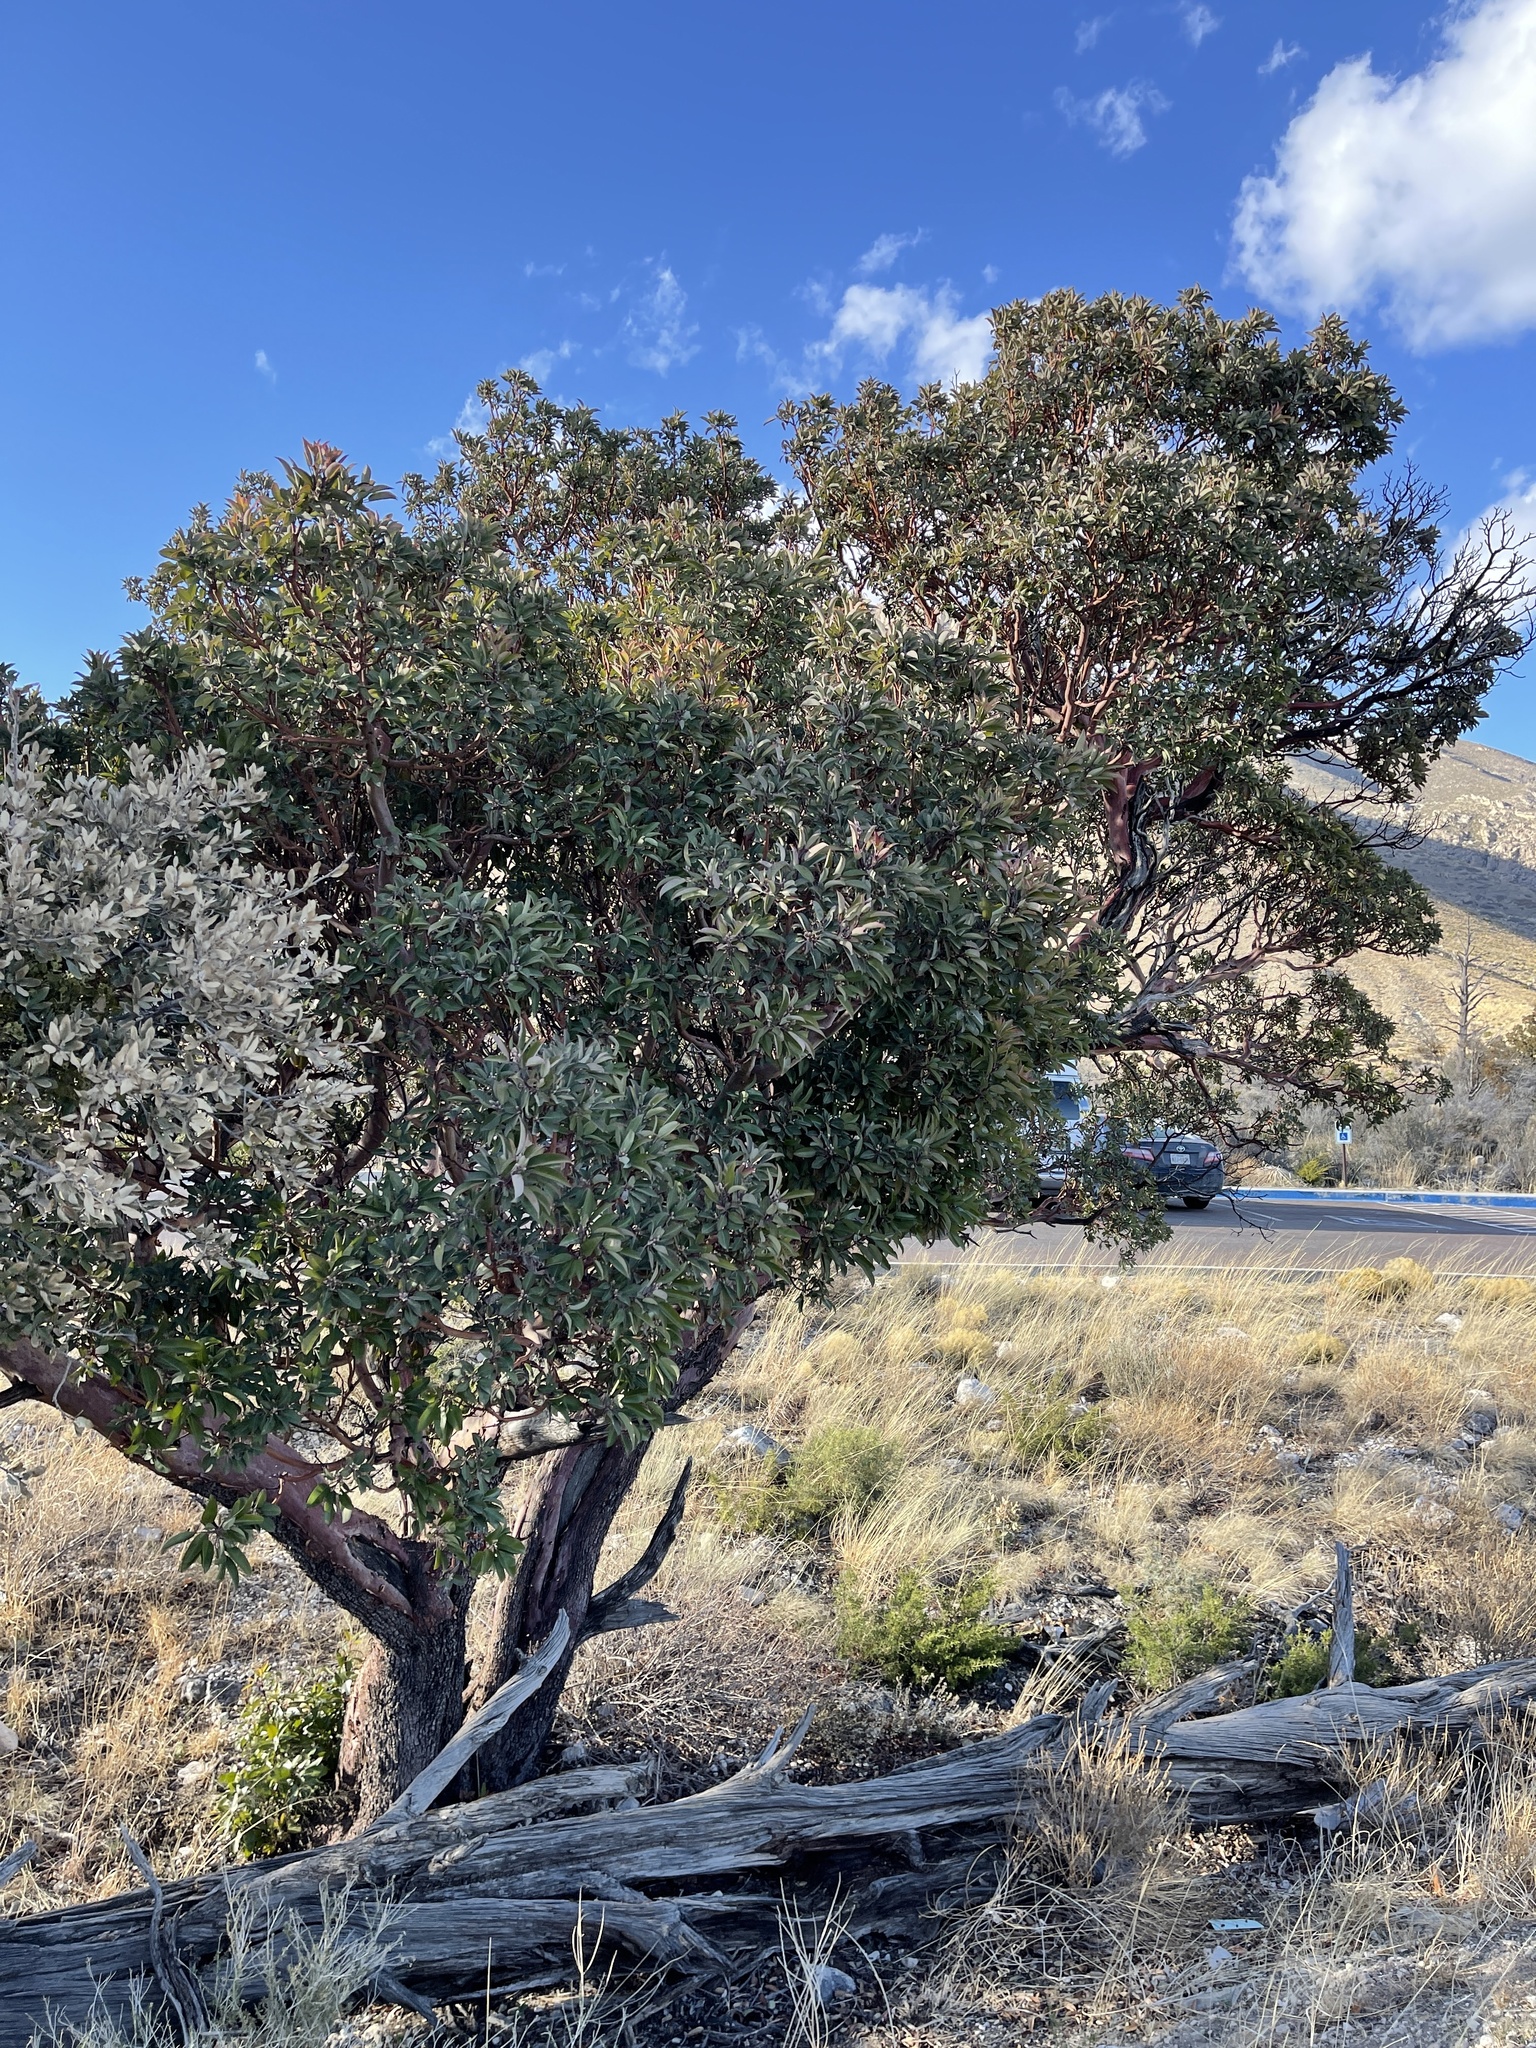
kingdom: Plantae
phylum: Tracheophyta
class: Magnoliopsida
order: Ericales
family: Ericaceae
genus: Arbutus
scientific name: Arbutus xalapensis
